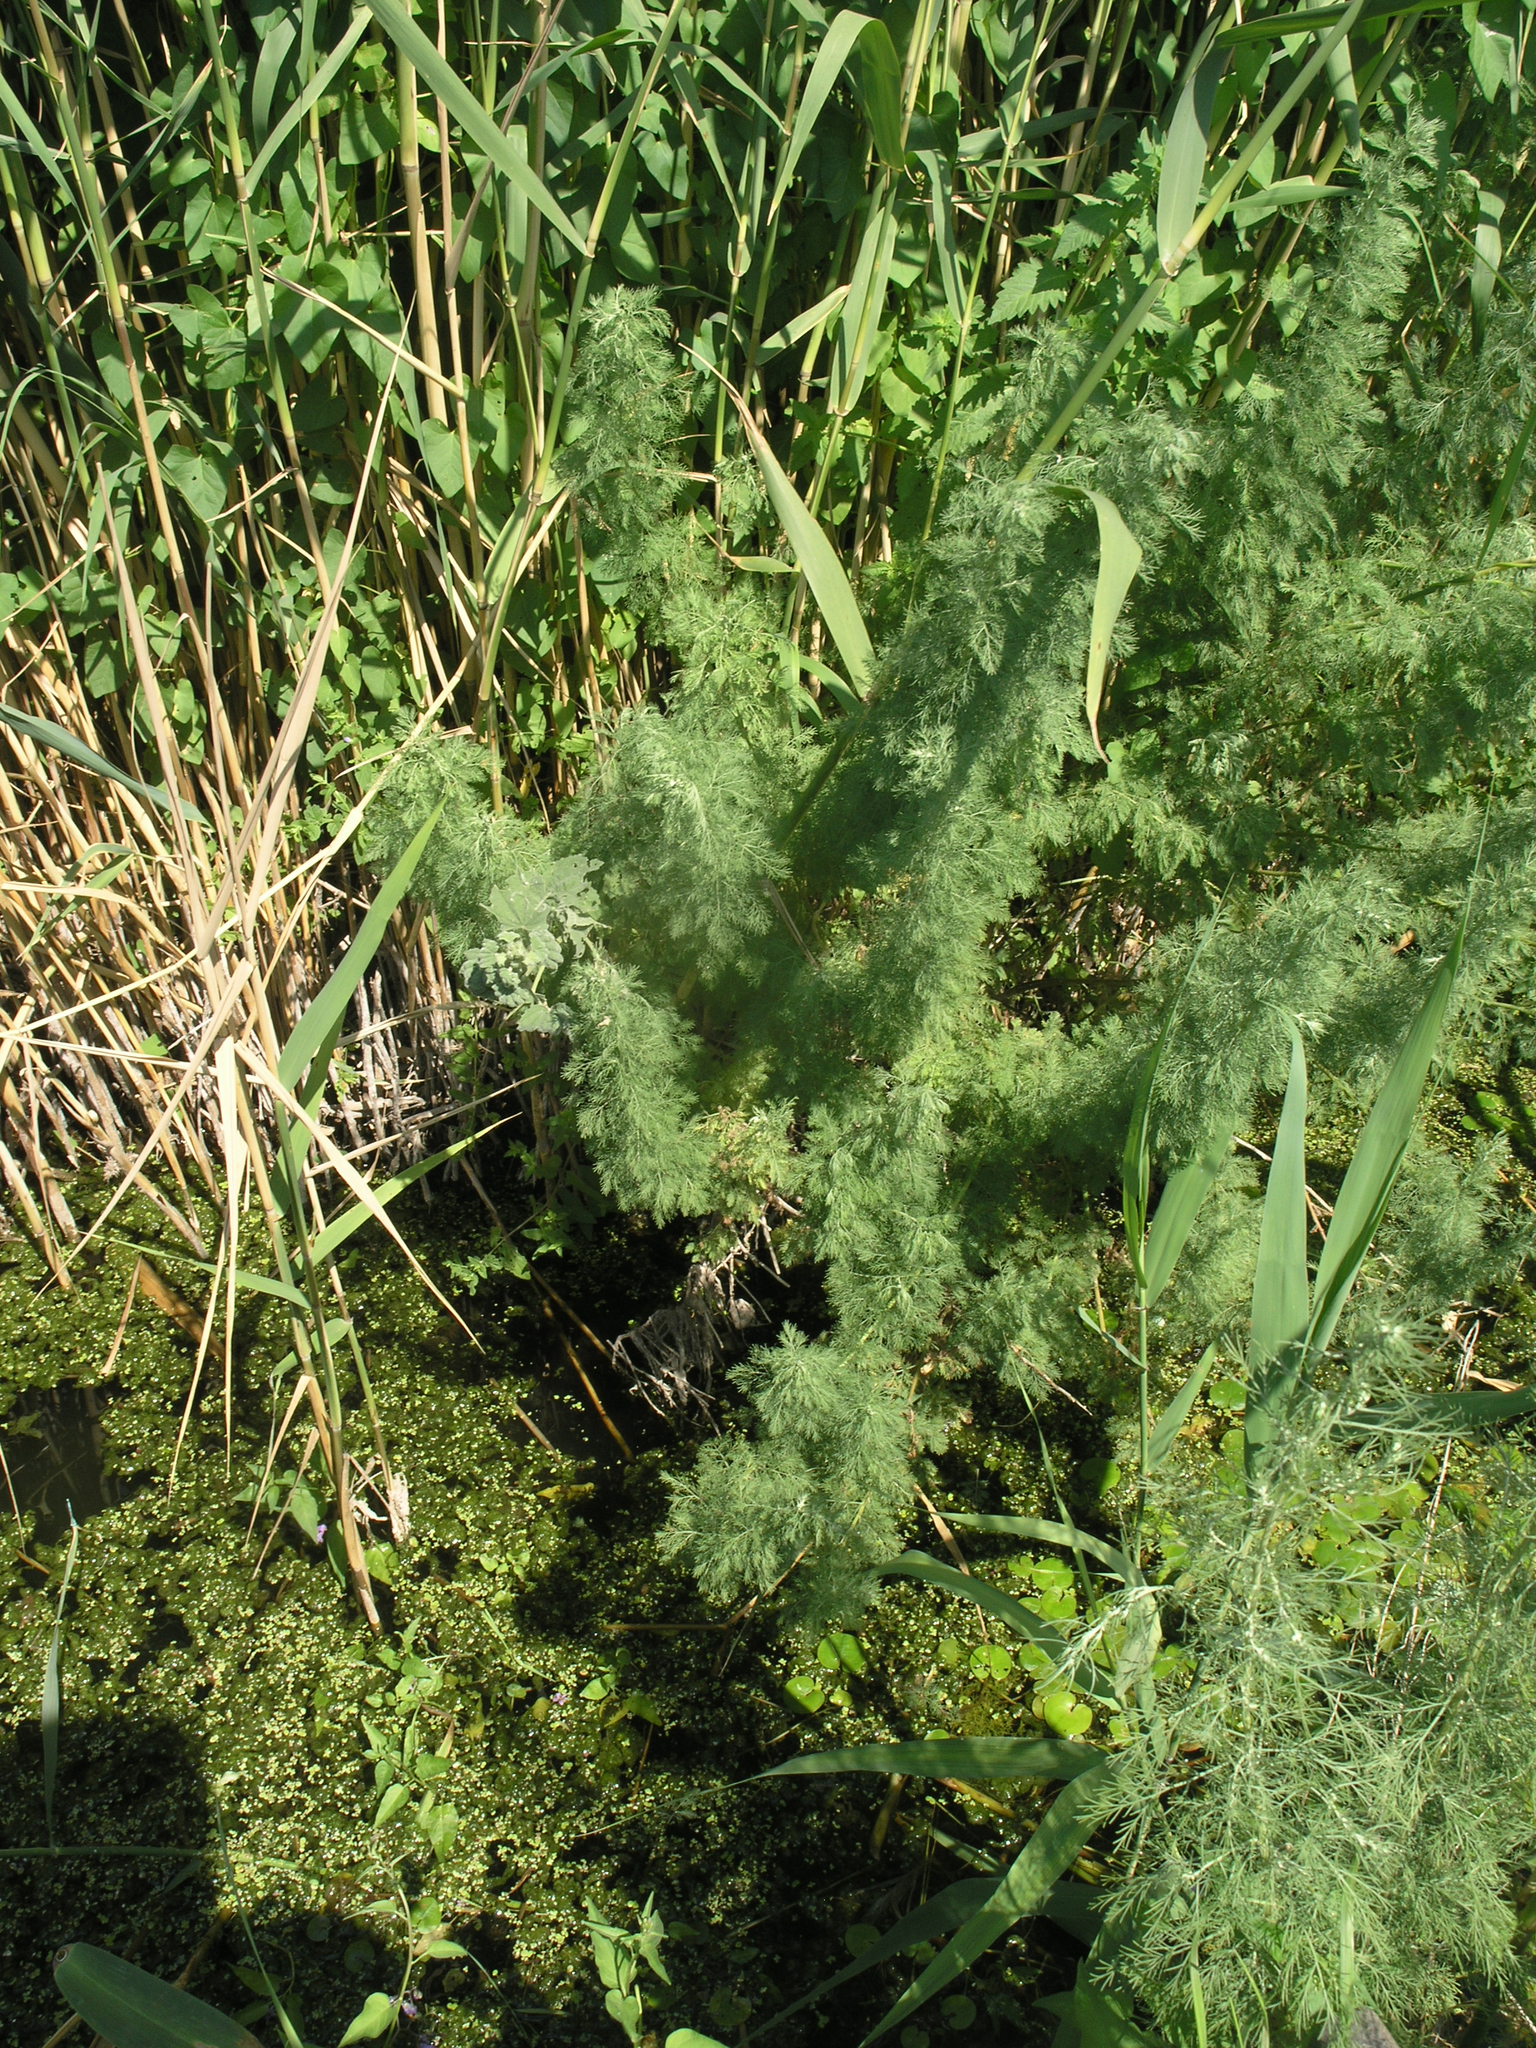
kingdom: Plantae
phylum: Tracheophyta
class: Magnoliopsida
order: Asterales
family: Asteraceae
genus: Artemisia
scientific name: Artemisia abrotanum
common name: Southernwood
